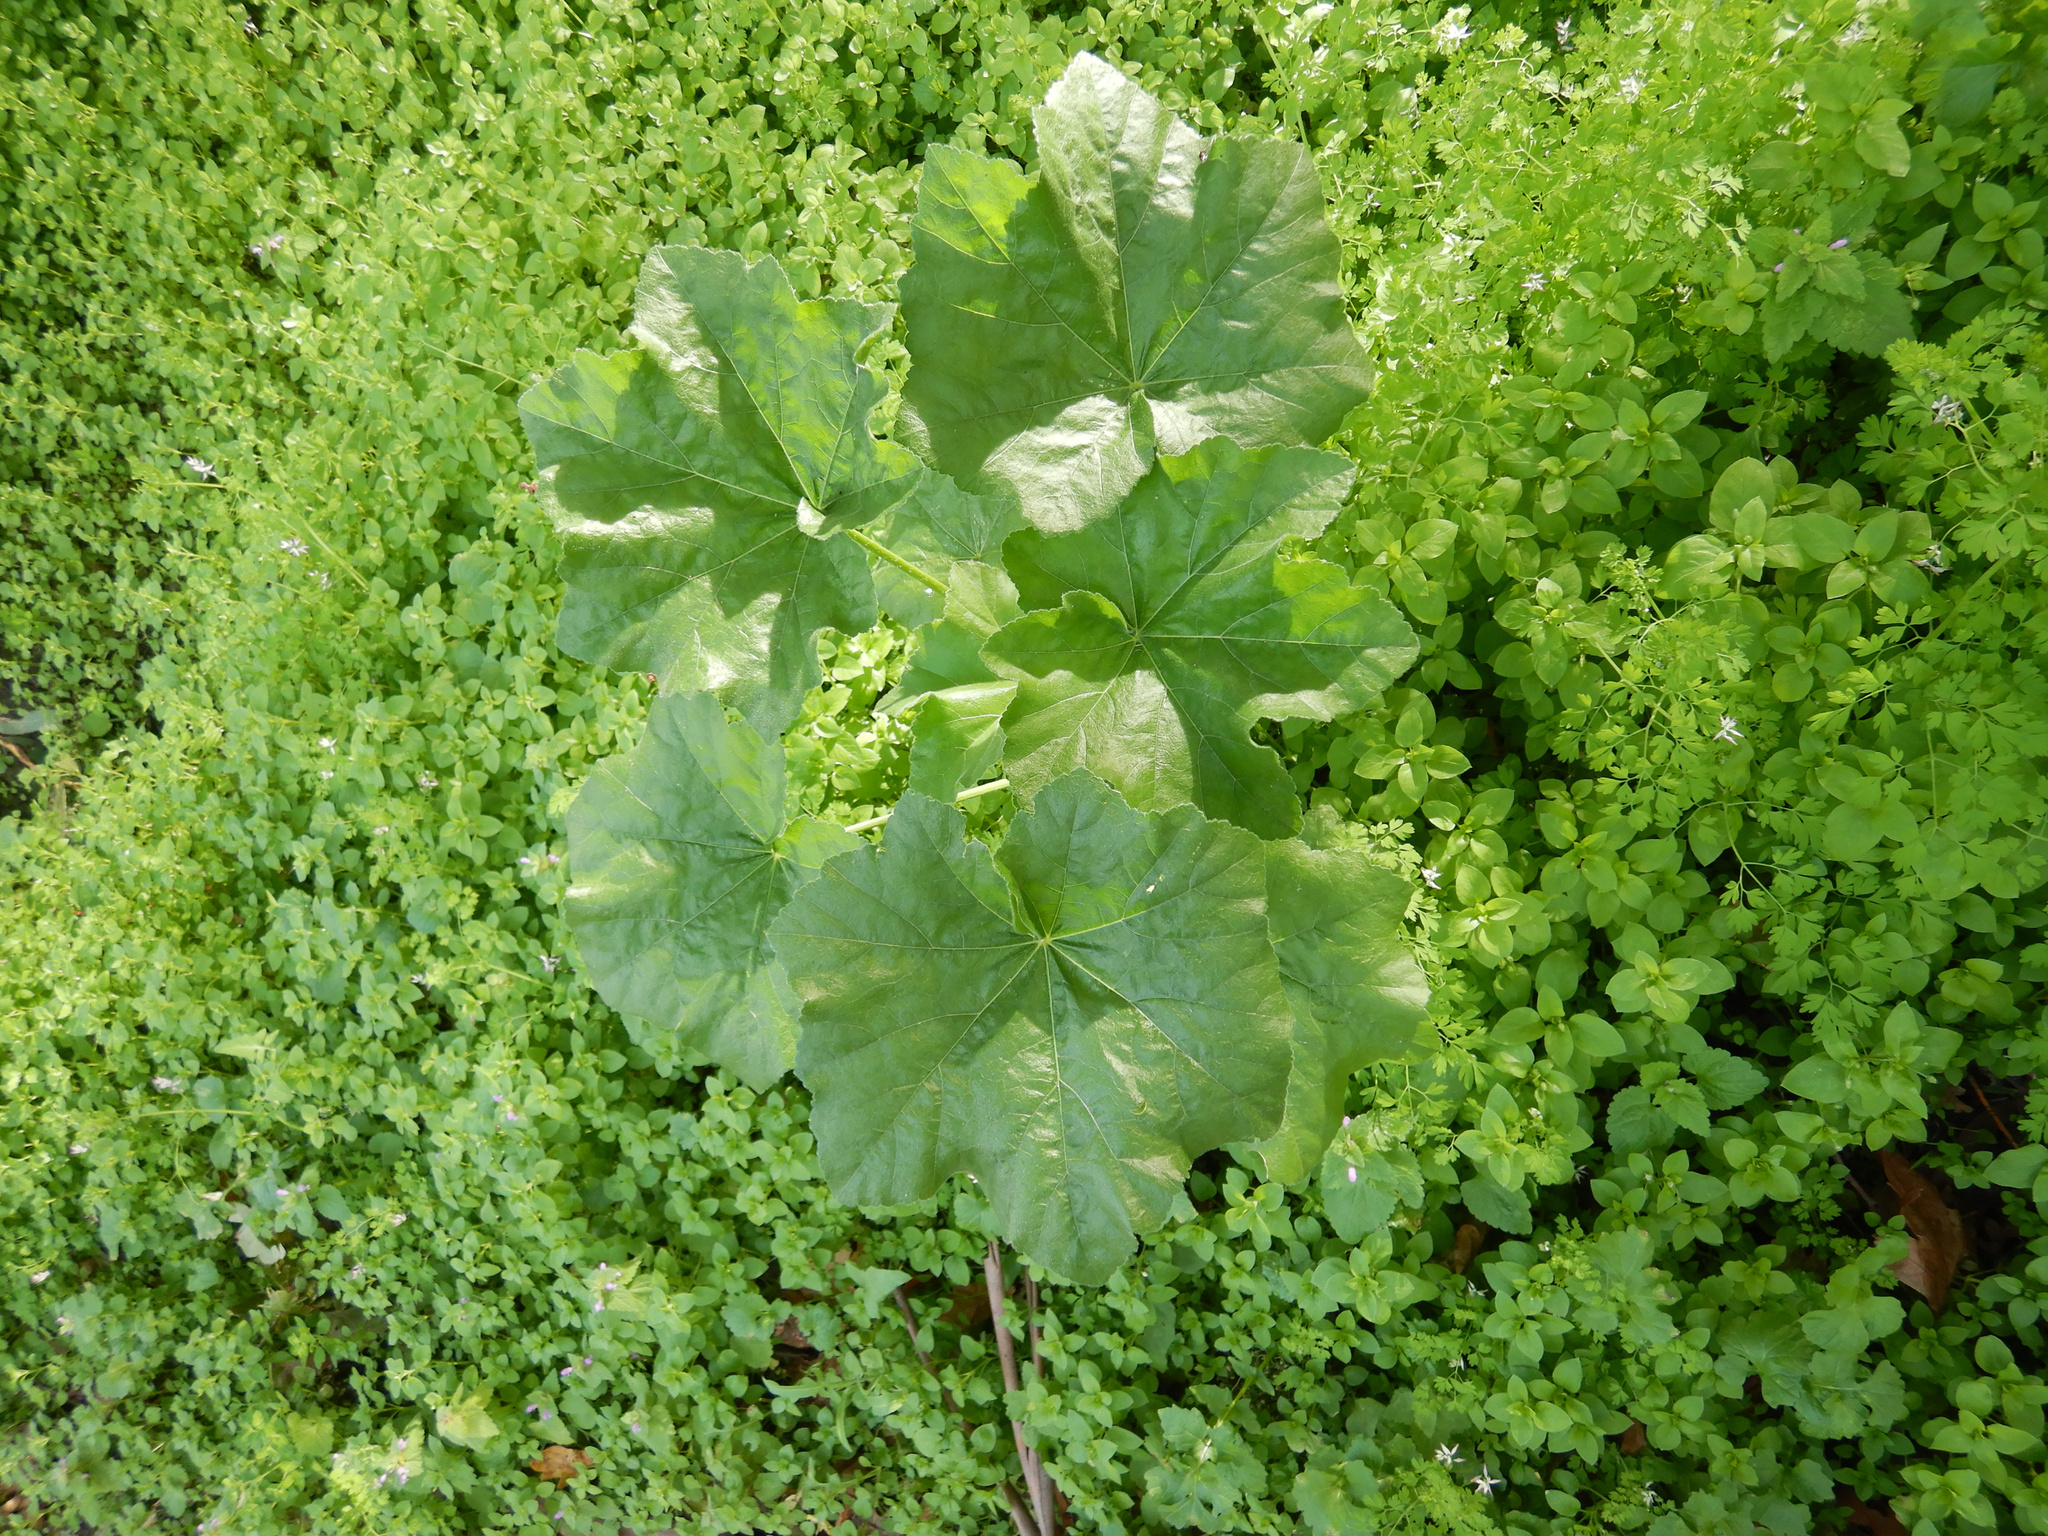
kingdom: Plantae
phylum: Tracheophyta
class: Magnoliopsida
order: Malvales
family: Malvaceae
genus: Malva
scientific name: Malva arborea
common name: Tree mallow
